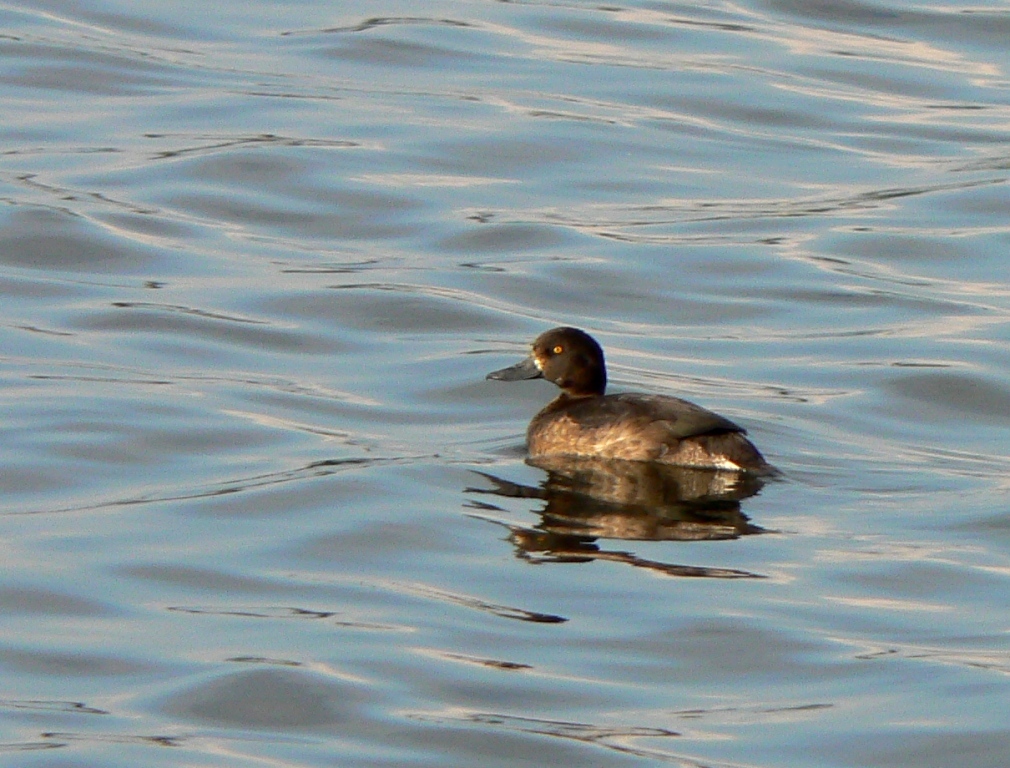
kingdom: Animalia
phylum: Chordata
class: Aves
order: Anseriformes
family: Anatidae
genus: Aythya
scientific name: Aythya fuligula
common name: Tufted duck
